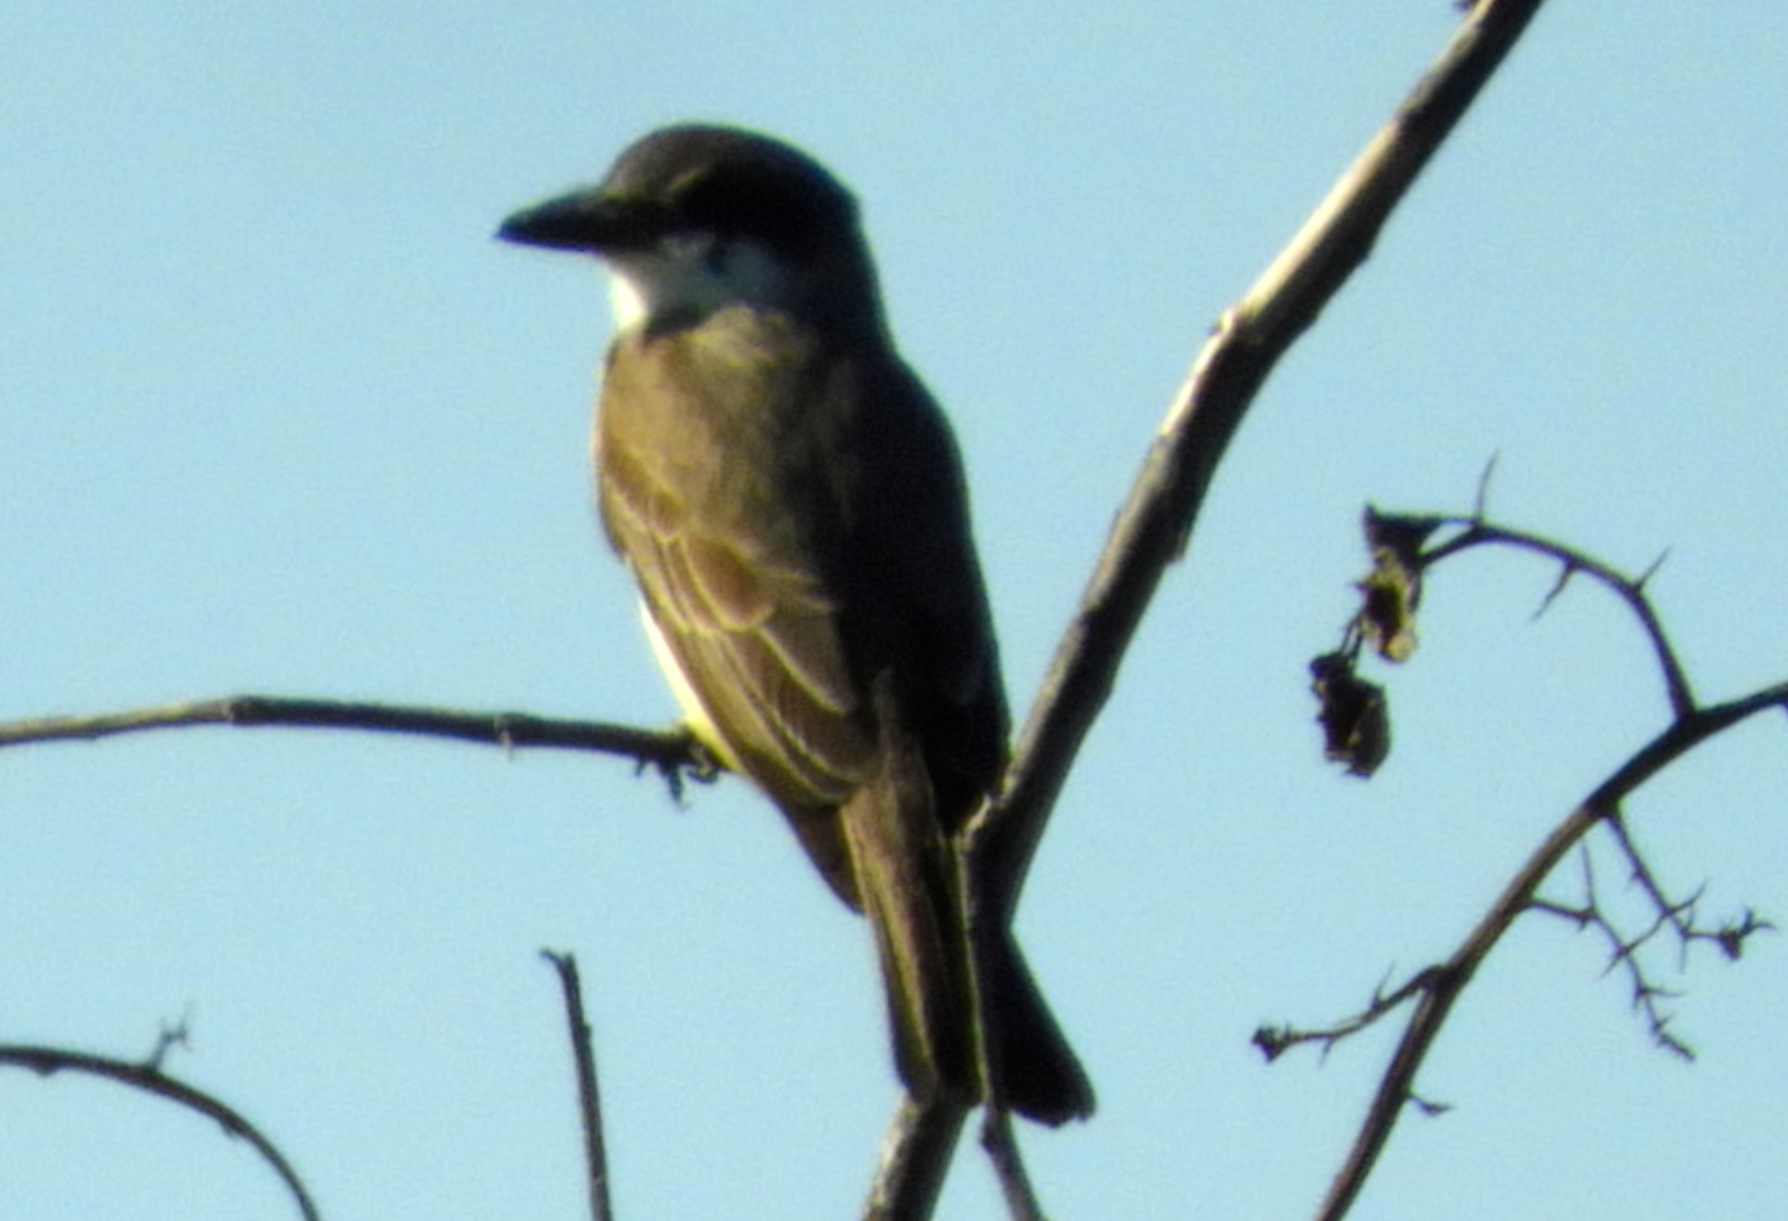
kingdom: Animalia
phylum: Chordata
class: Aves
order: Passeriformes
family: Tyrannidae
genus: Tyrannus
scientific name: Tyrannus crassirostris
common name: Thick-billed kingbird
